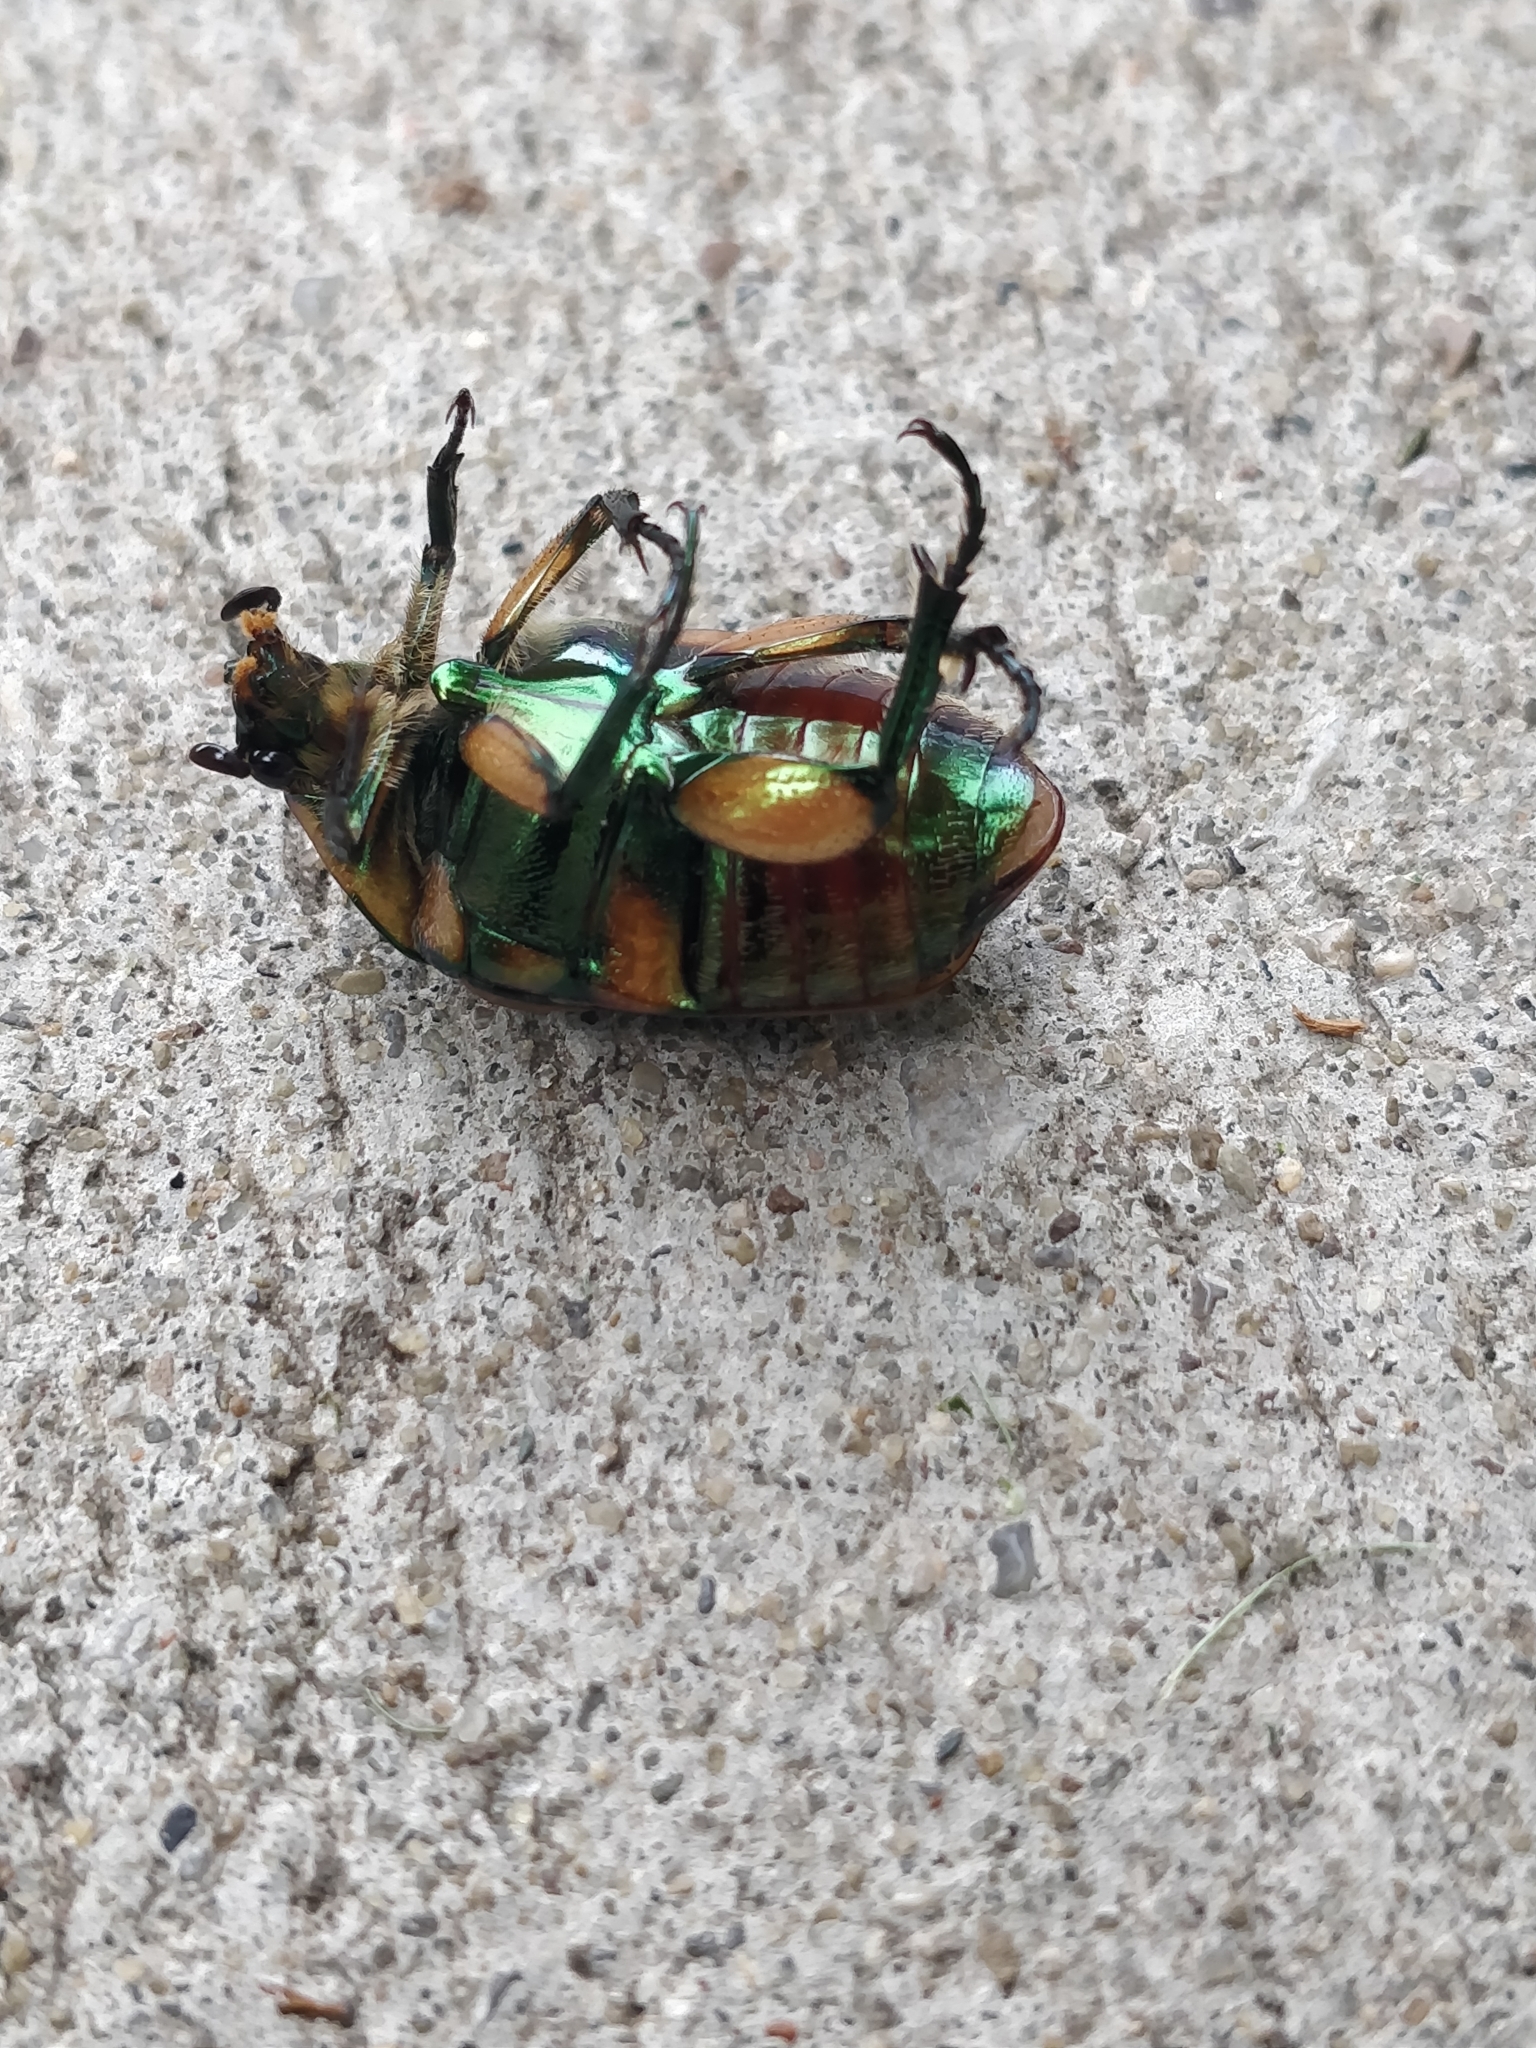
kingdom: Animalia
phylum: Arthropoda
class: Insecta
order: Coleoptera
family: Scarabaeidae
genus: Cotinis
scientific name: Cotinis nitida
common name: Common green june beetle
